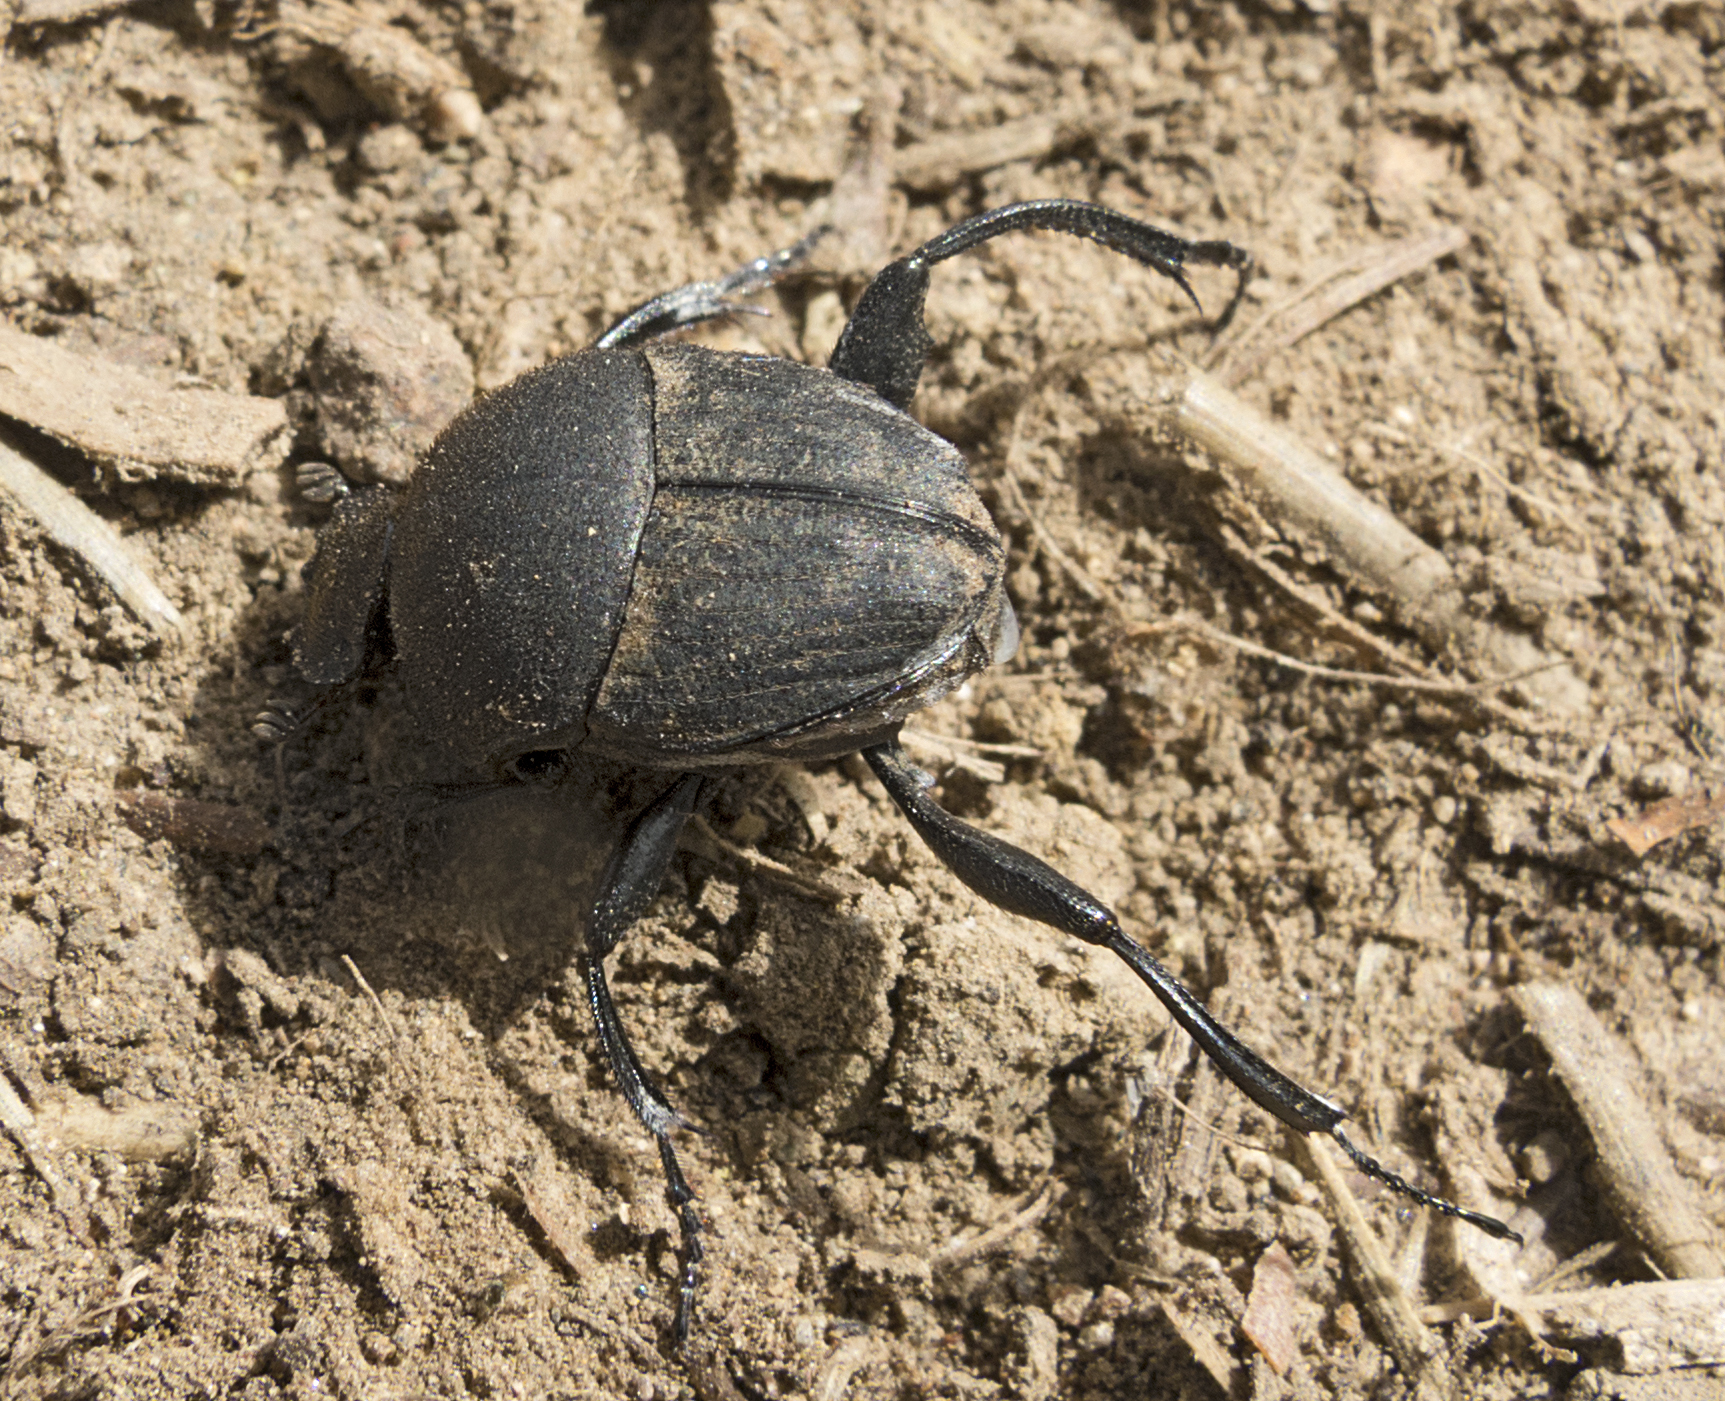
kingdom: Animalia
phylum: Arthropoda
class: Insecta
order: Coleoptera
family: Scarabaeidae
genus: Sisyphus
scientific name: Sisyphus schaefferi
